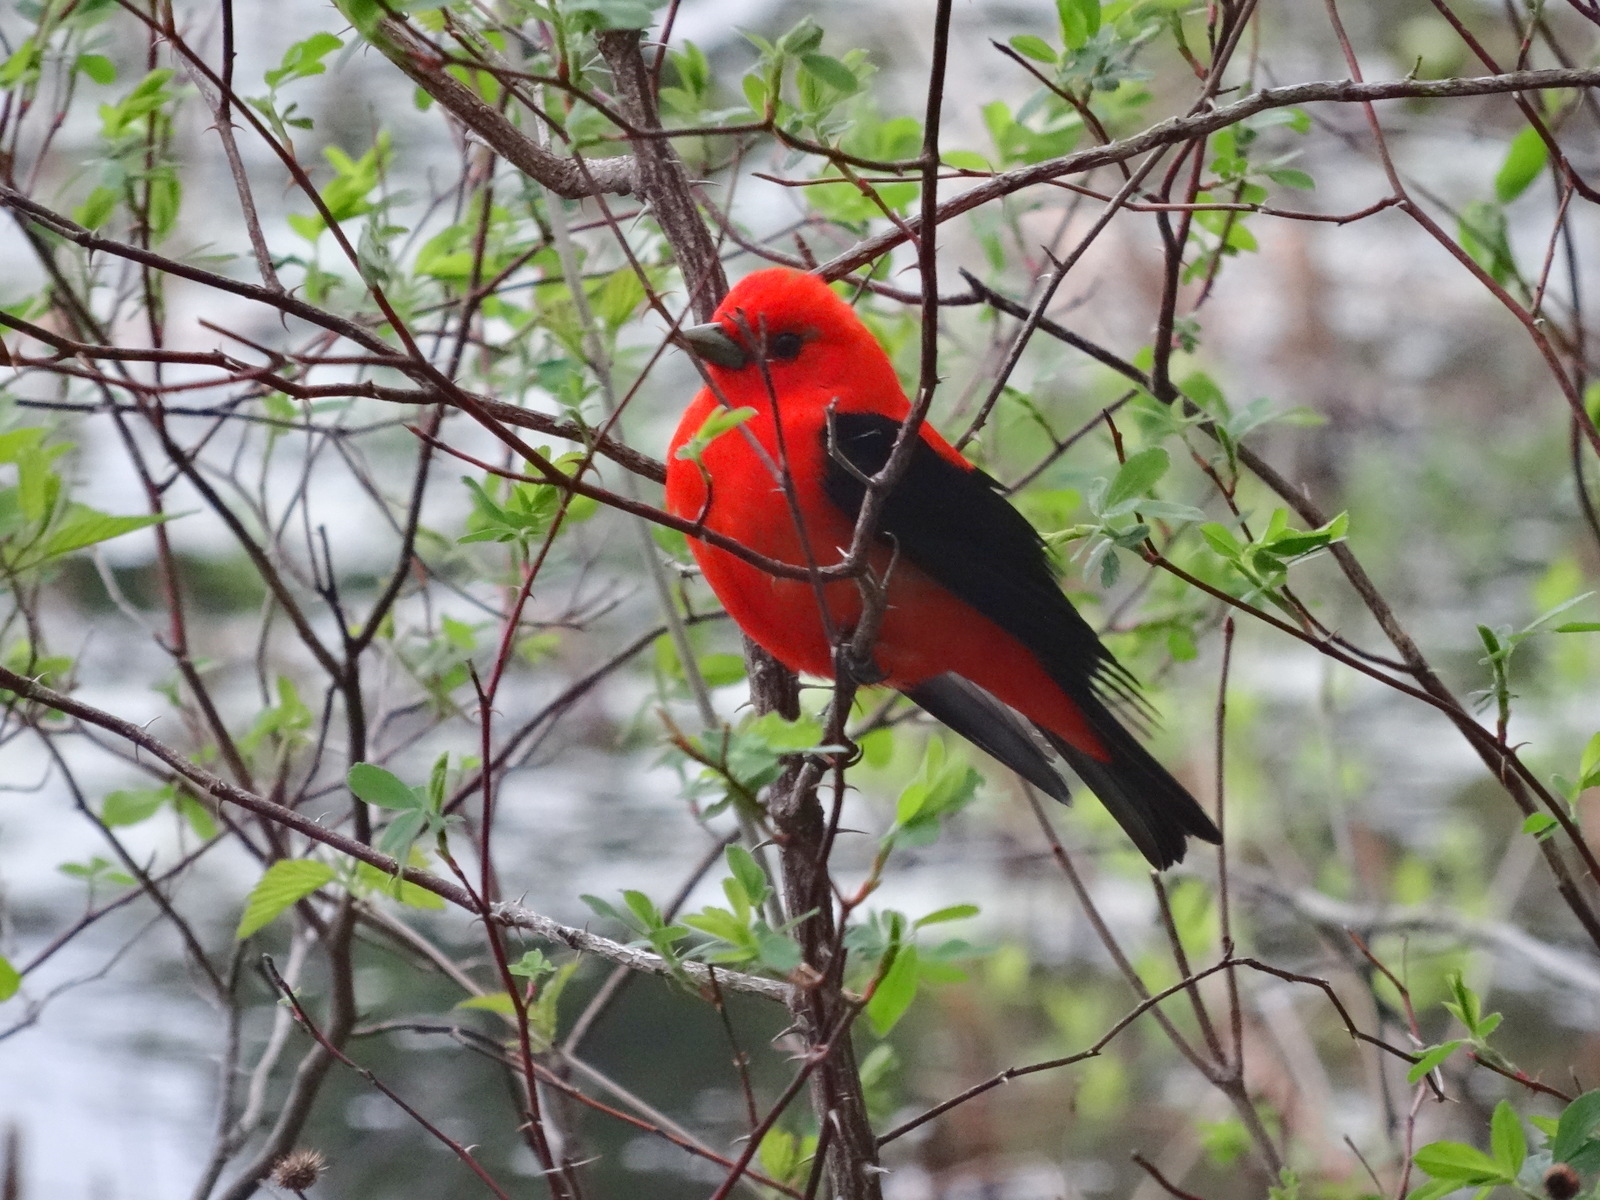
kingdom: Animalia
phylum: Chordata
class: Aves
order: Passeriformes
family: Cardinalidae
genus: Piranga
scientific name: Piranga olivacea
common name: Scarlet tanager
